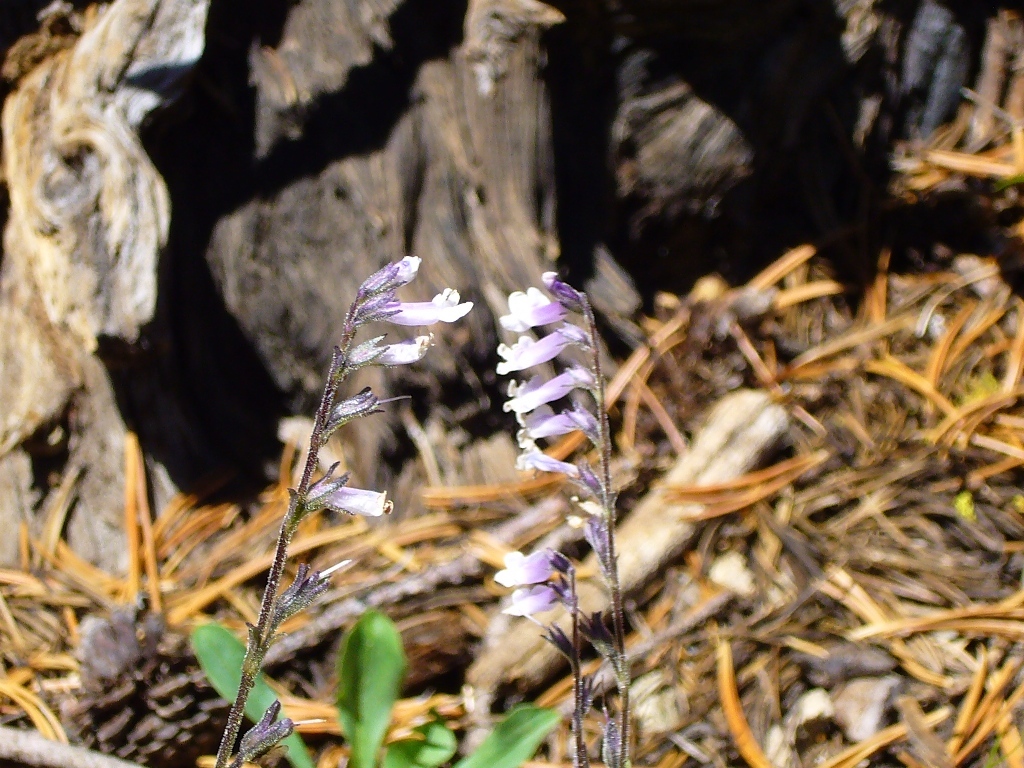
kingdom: Plantae
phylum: Tracheophyta
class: Magnoliopsida
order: Lamiales
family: Plantaginaceae
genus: Chionophila
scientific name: Chionophila tweedyi
